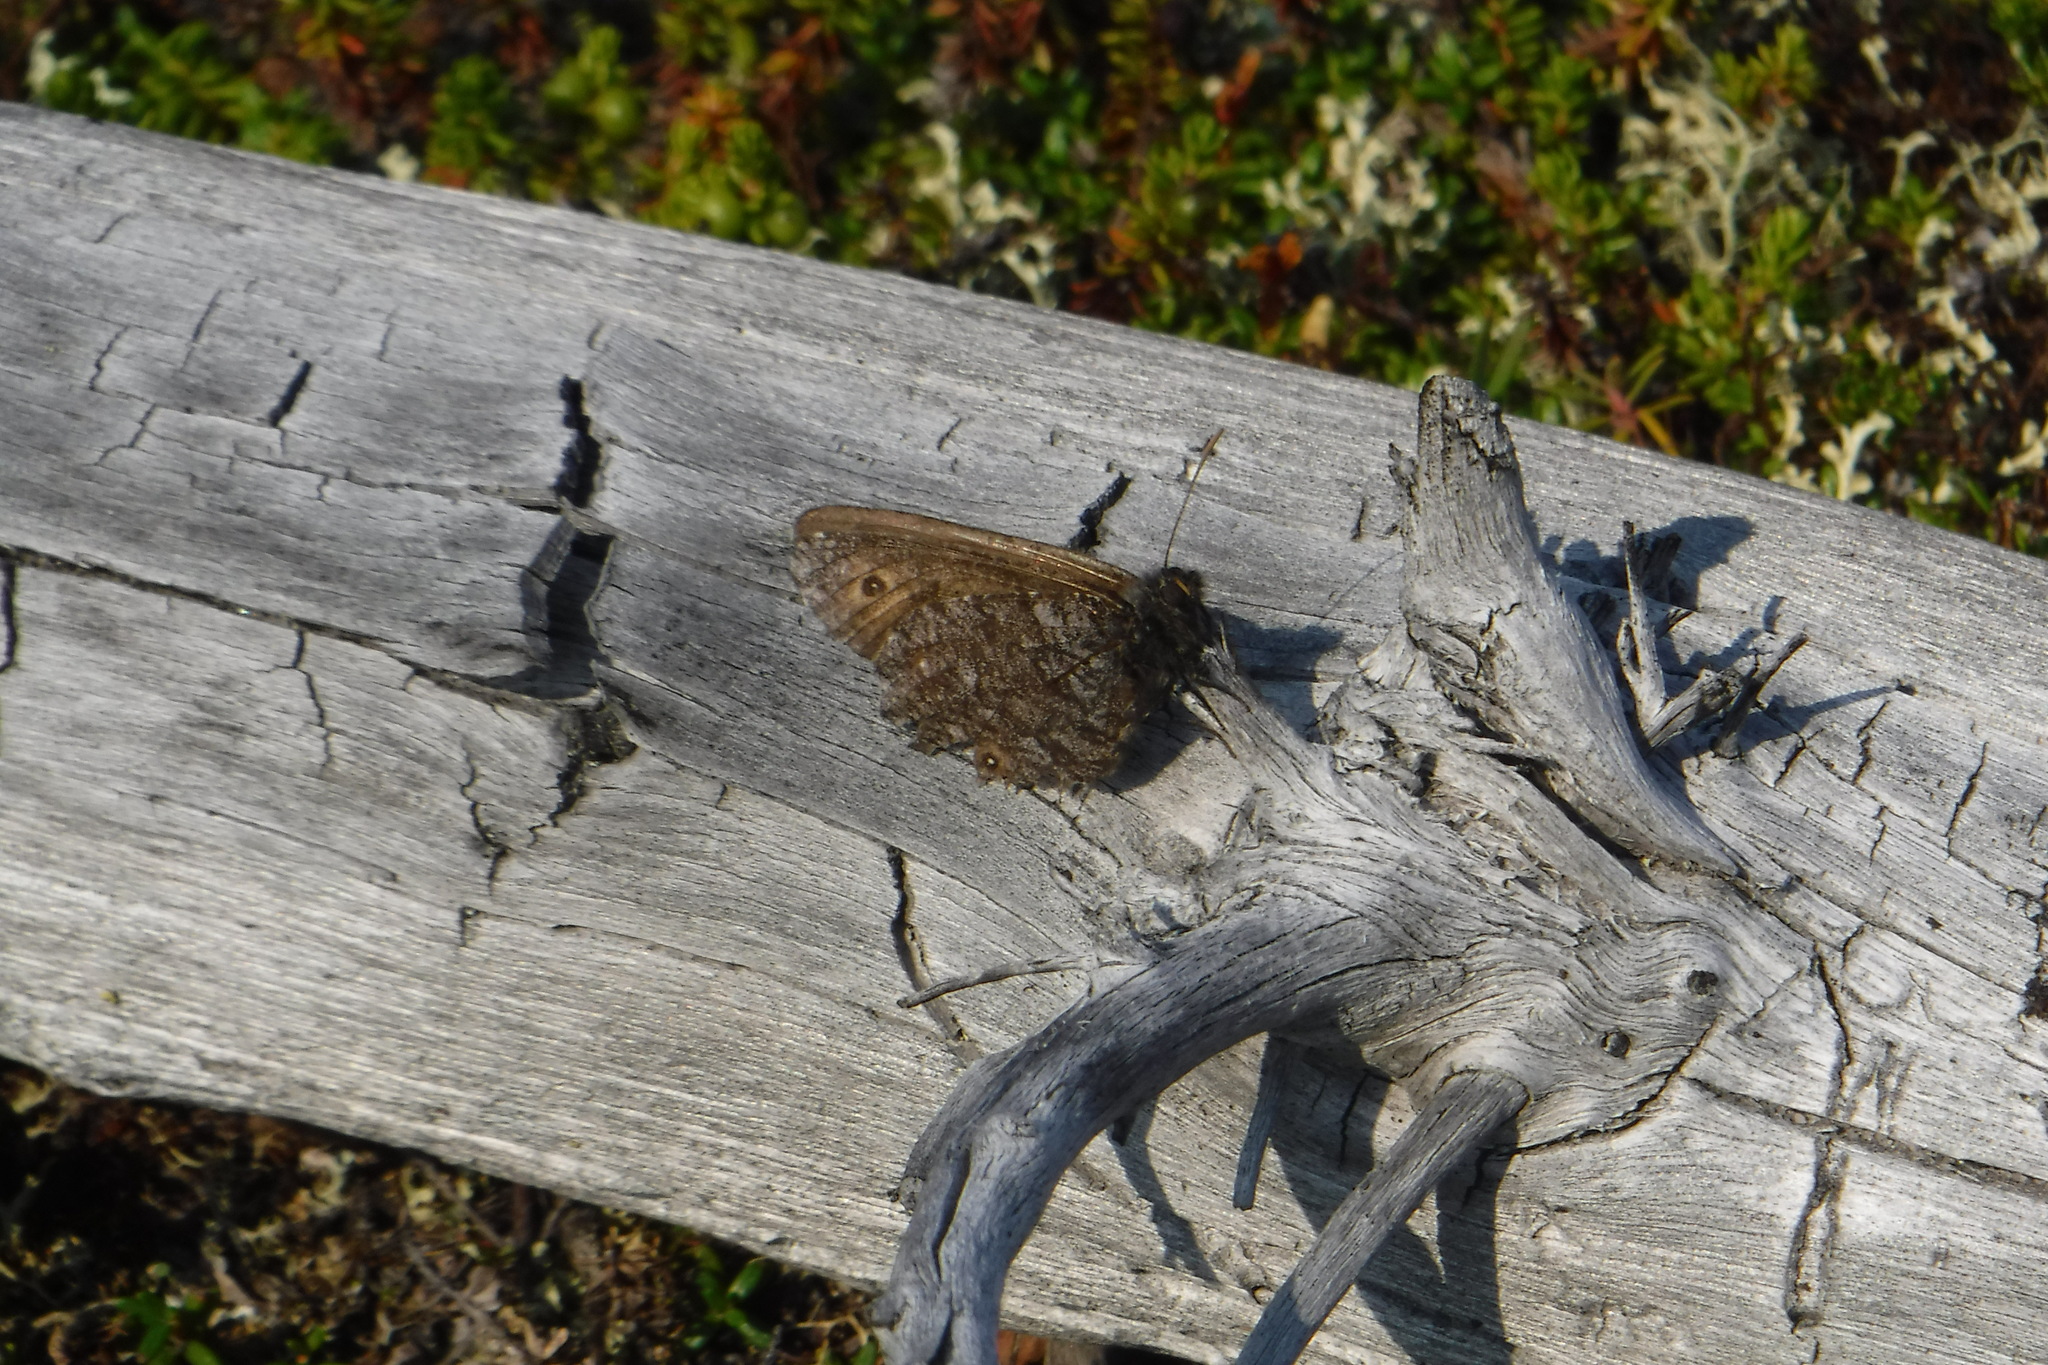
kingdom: Animalia
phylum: Arthropoda
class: Insecta
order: Lepidoptera
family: Nymphalidae
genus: Oeneis
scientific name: Oeneis jutta
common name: Baltic grayling
